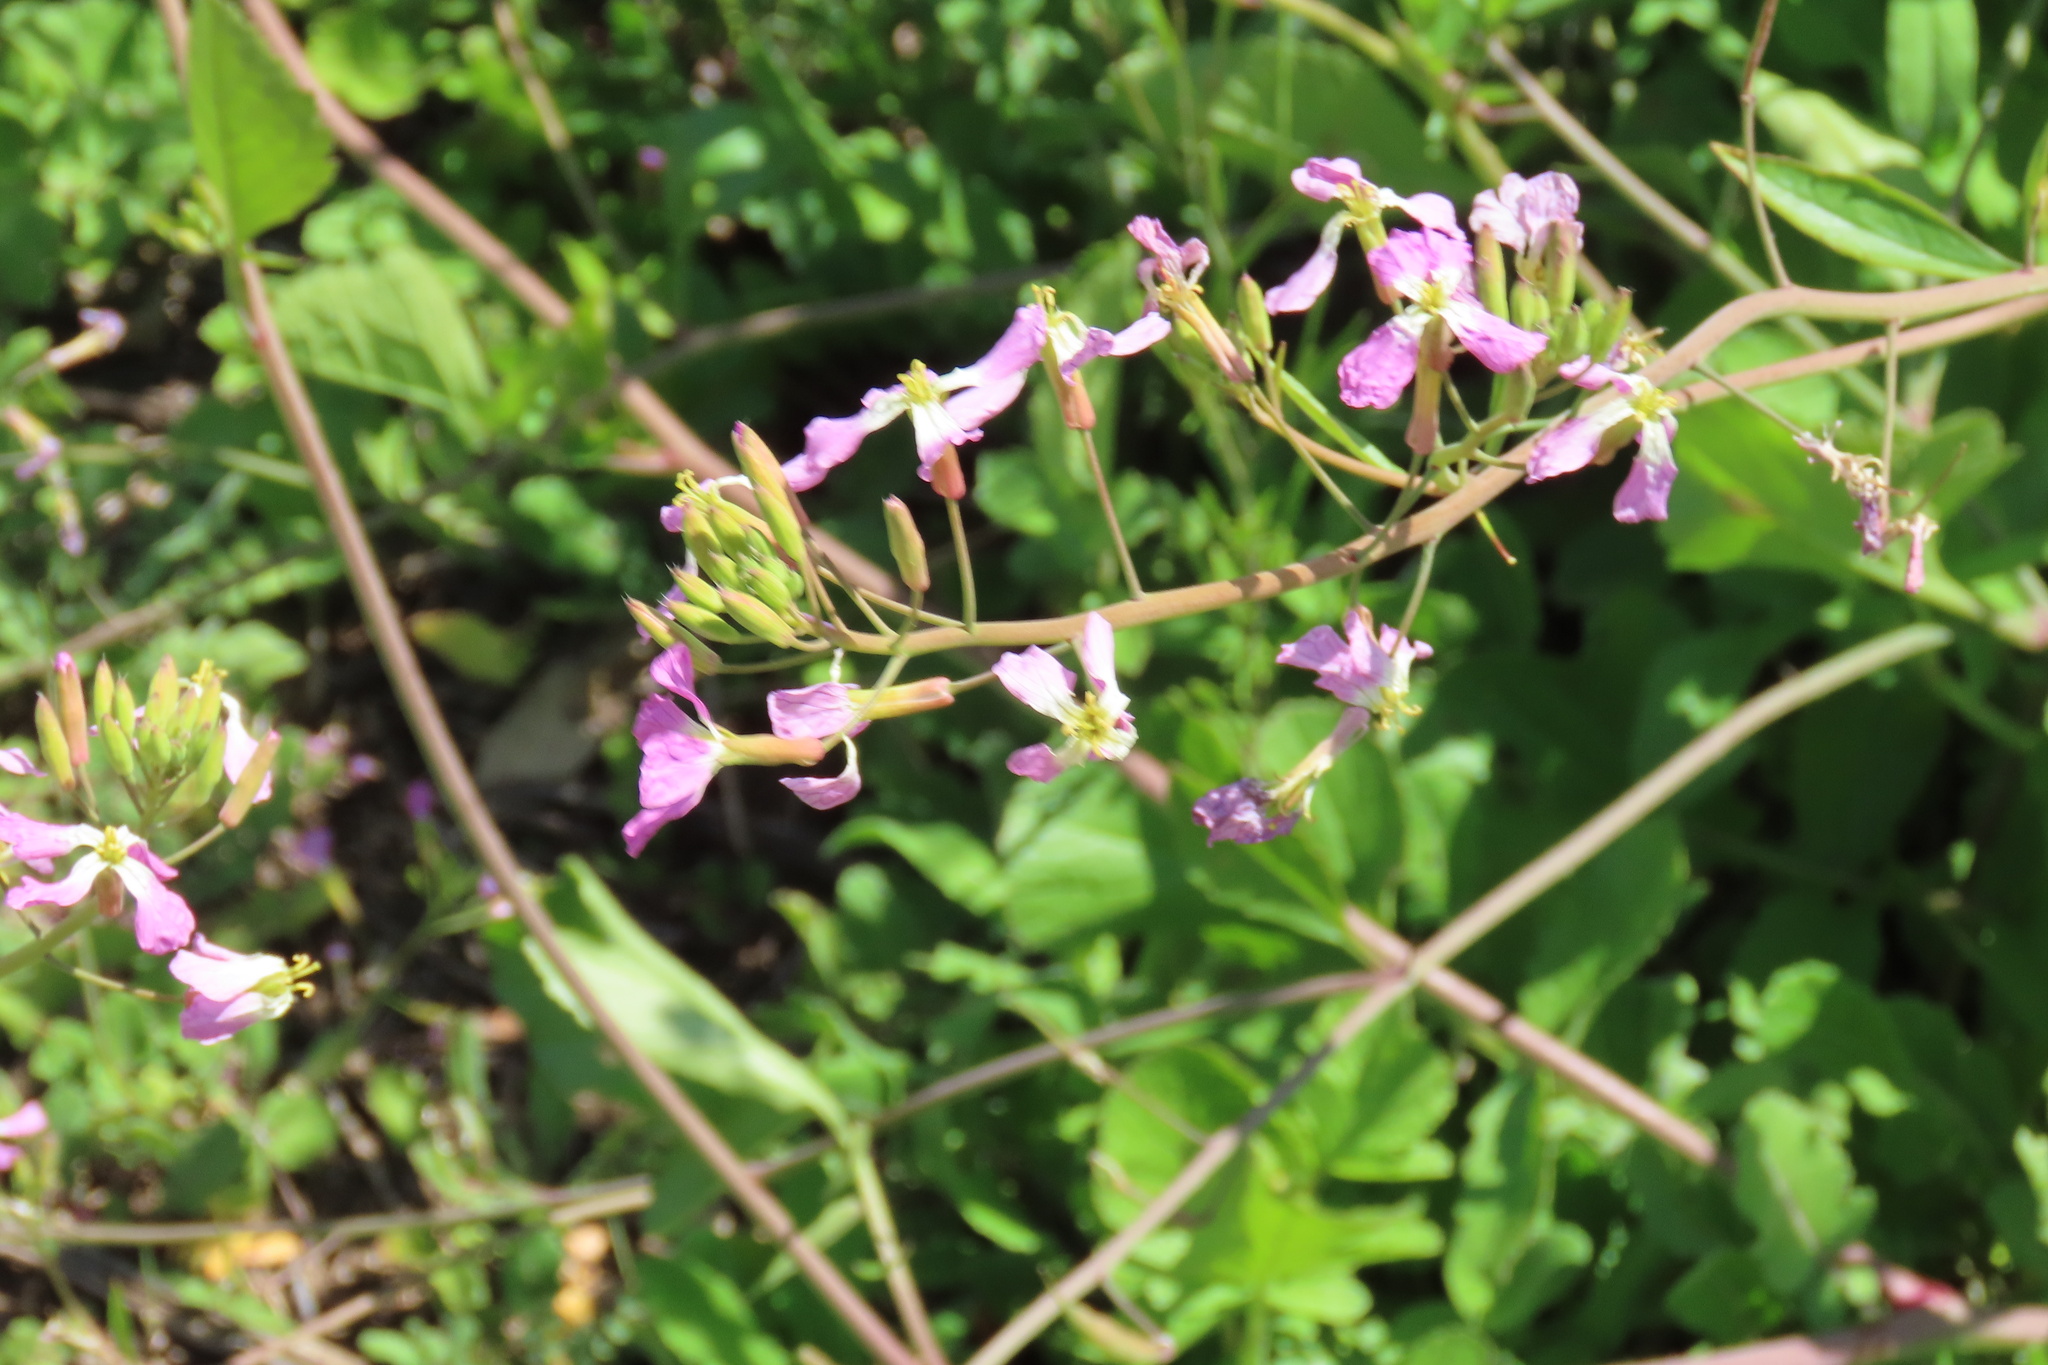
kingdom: Plantae
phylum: Tracheophyta
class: Magnoliopsida
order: Brassicales
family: Brassicaceae
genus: Raphanus
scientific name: Raphanus sativus
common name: Cultivated radish
